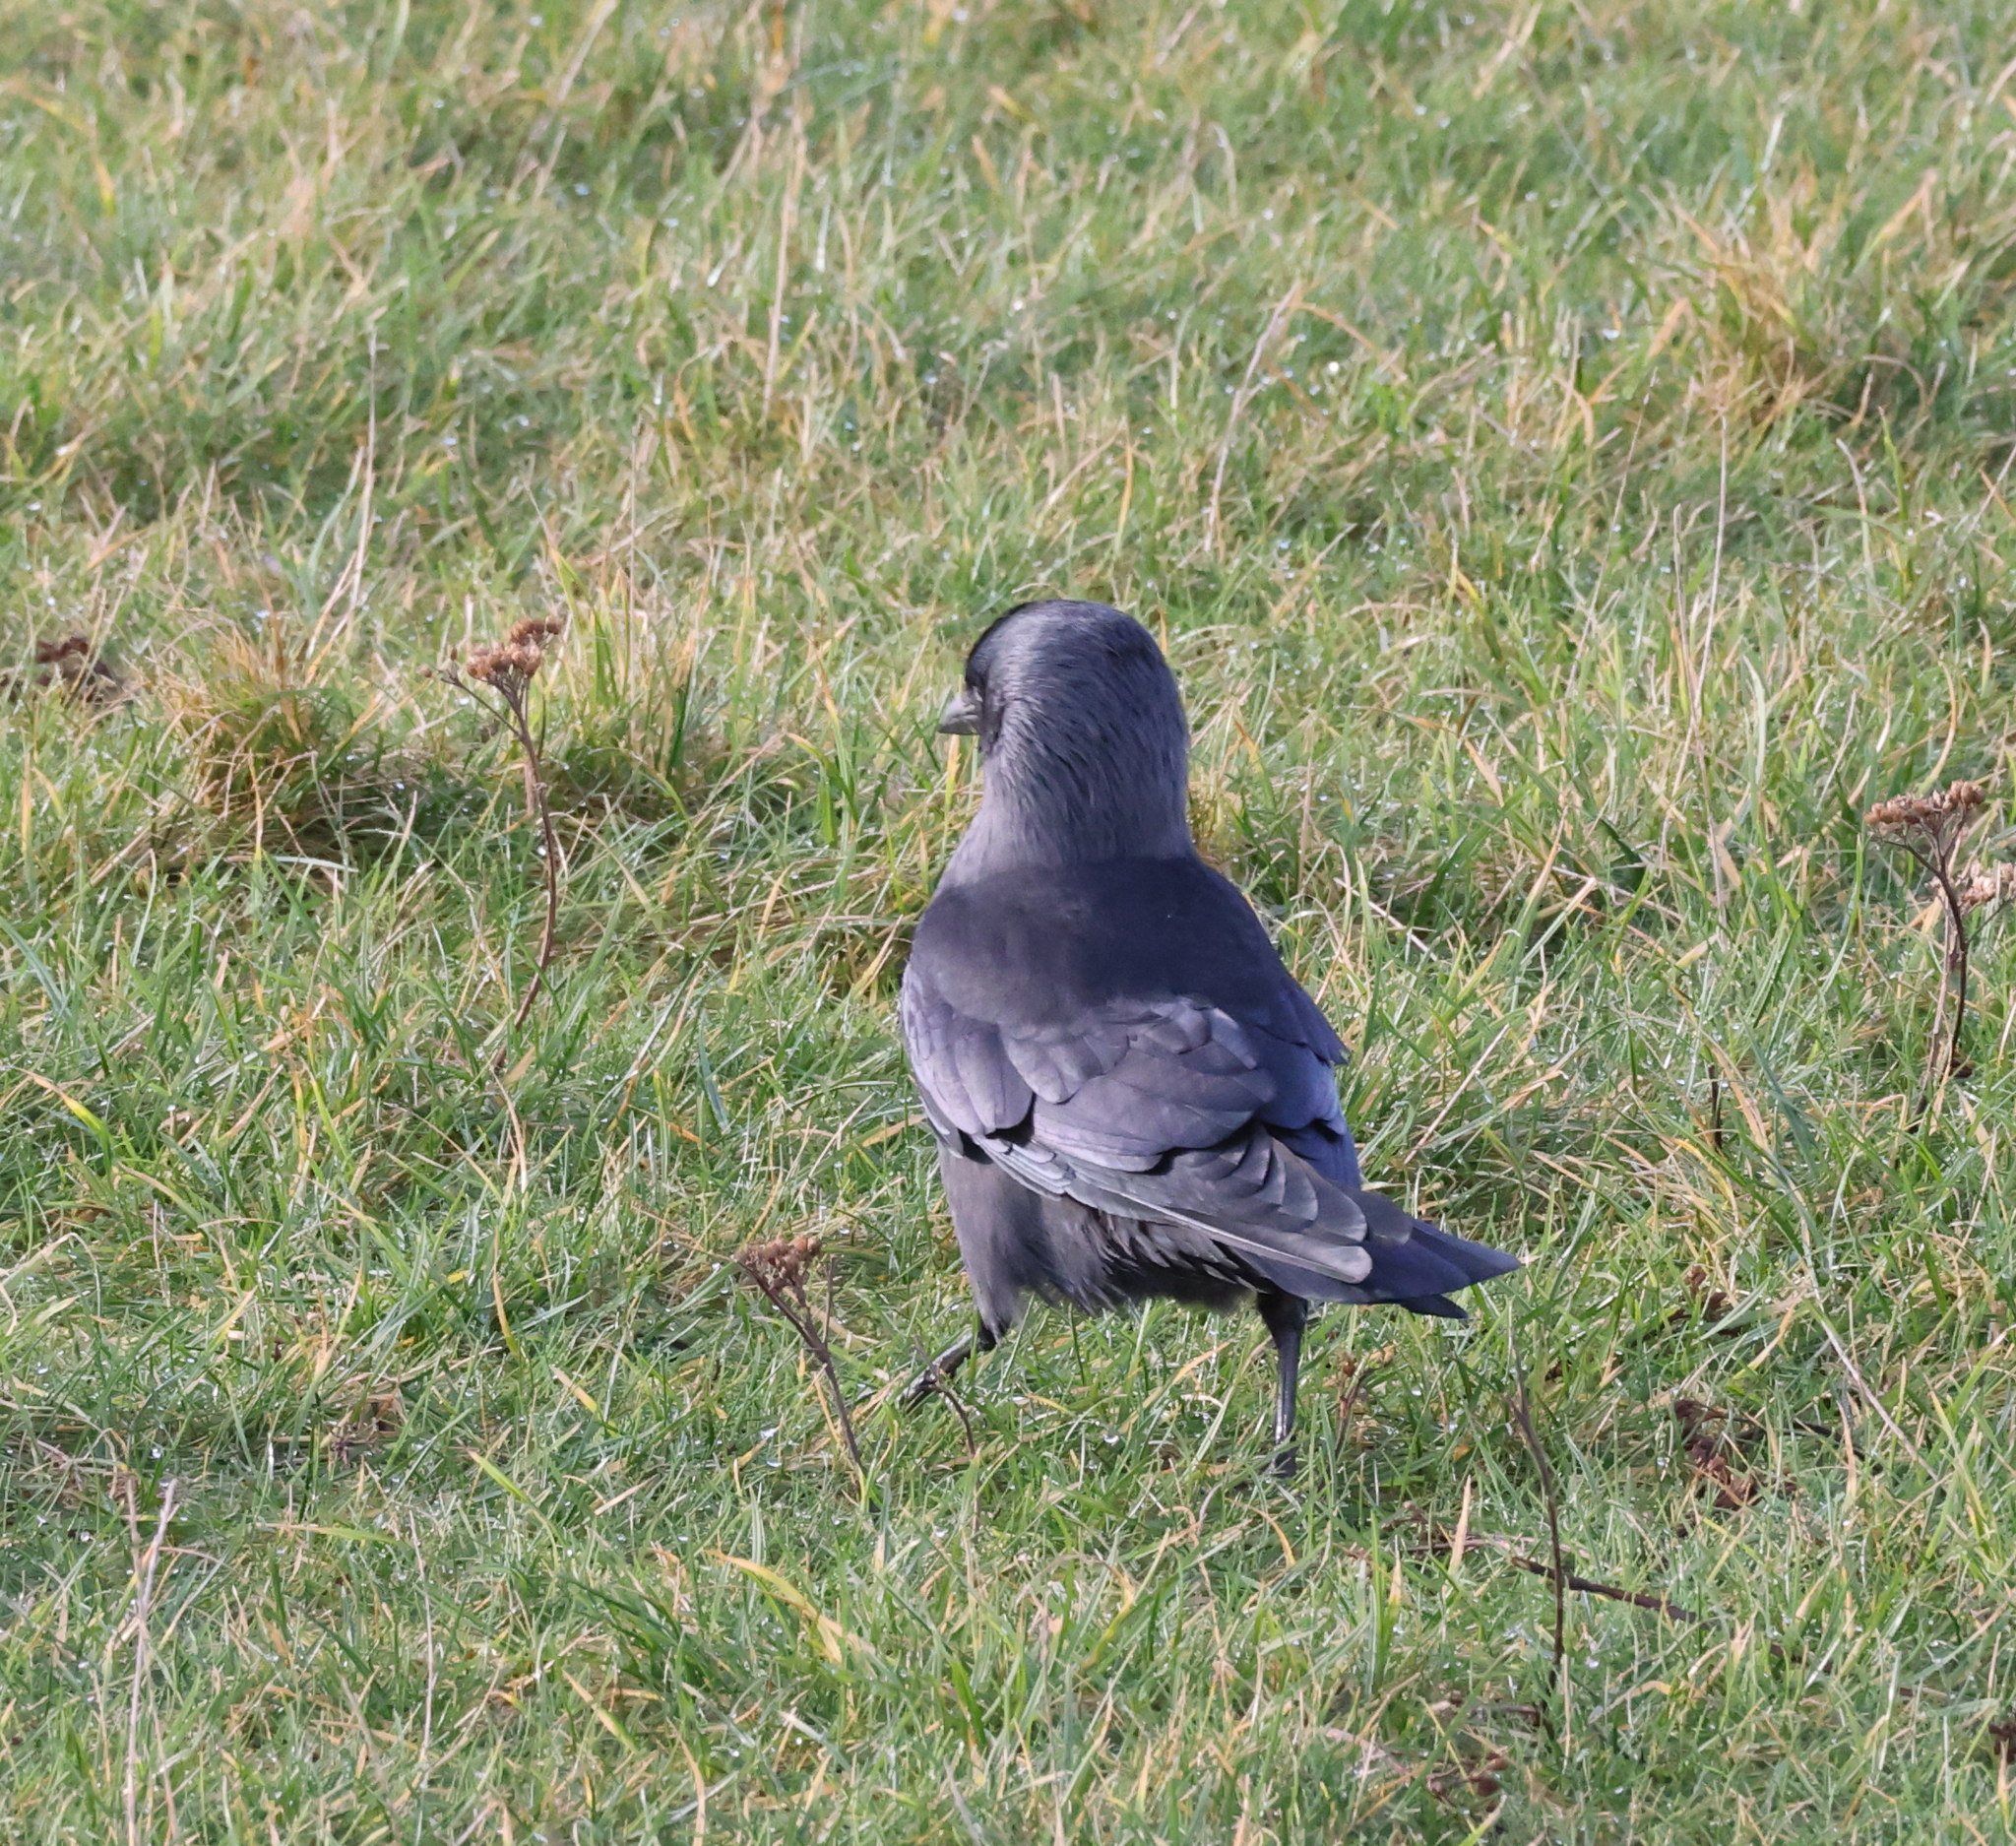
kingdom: Animalia
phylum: Chordata
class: Aves
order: Passeriformes
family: Corvidae
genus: Coloeus
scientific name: Coloeus monedula
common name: Western jackdaw
